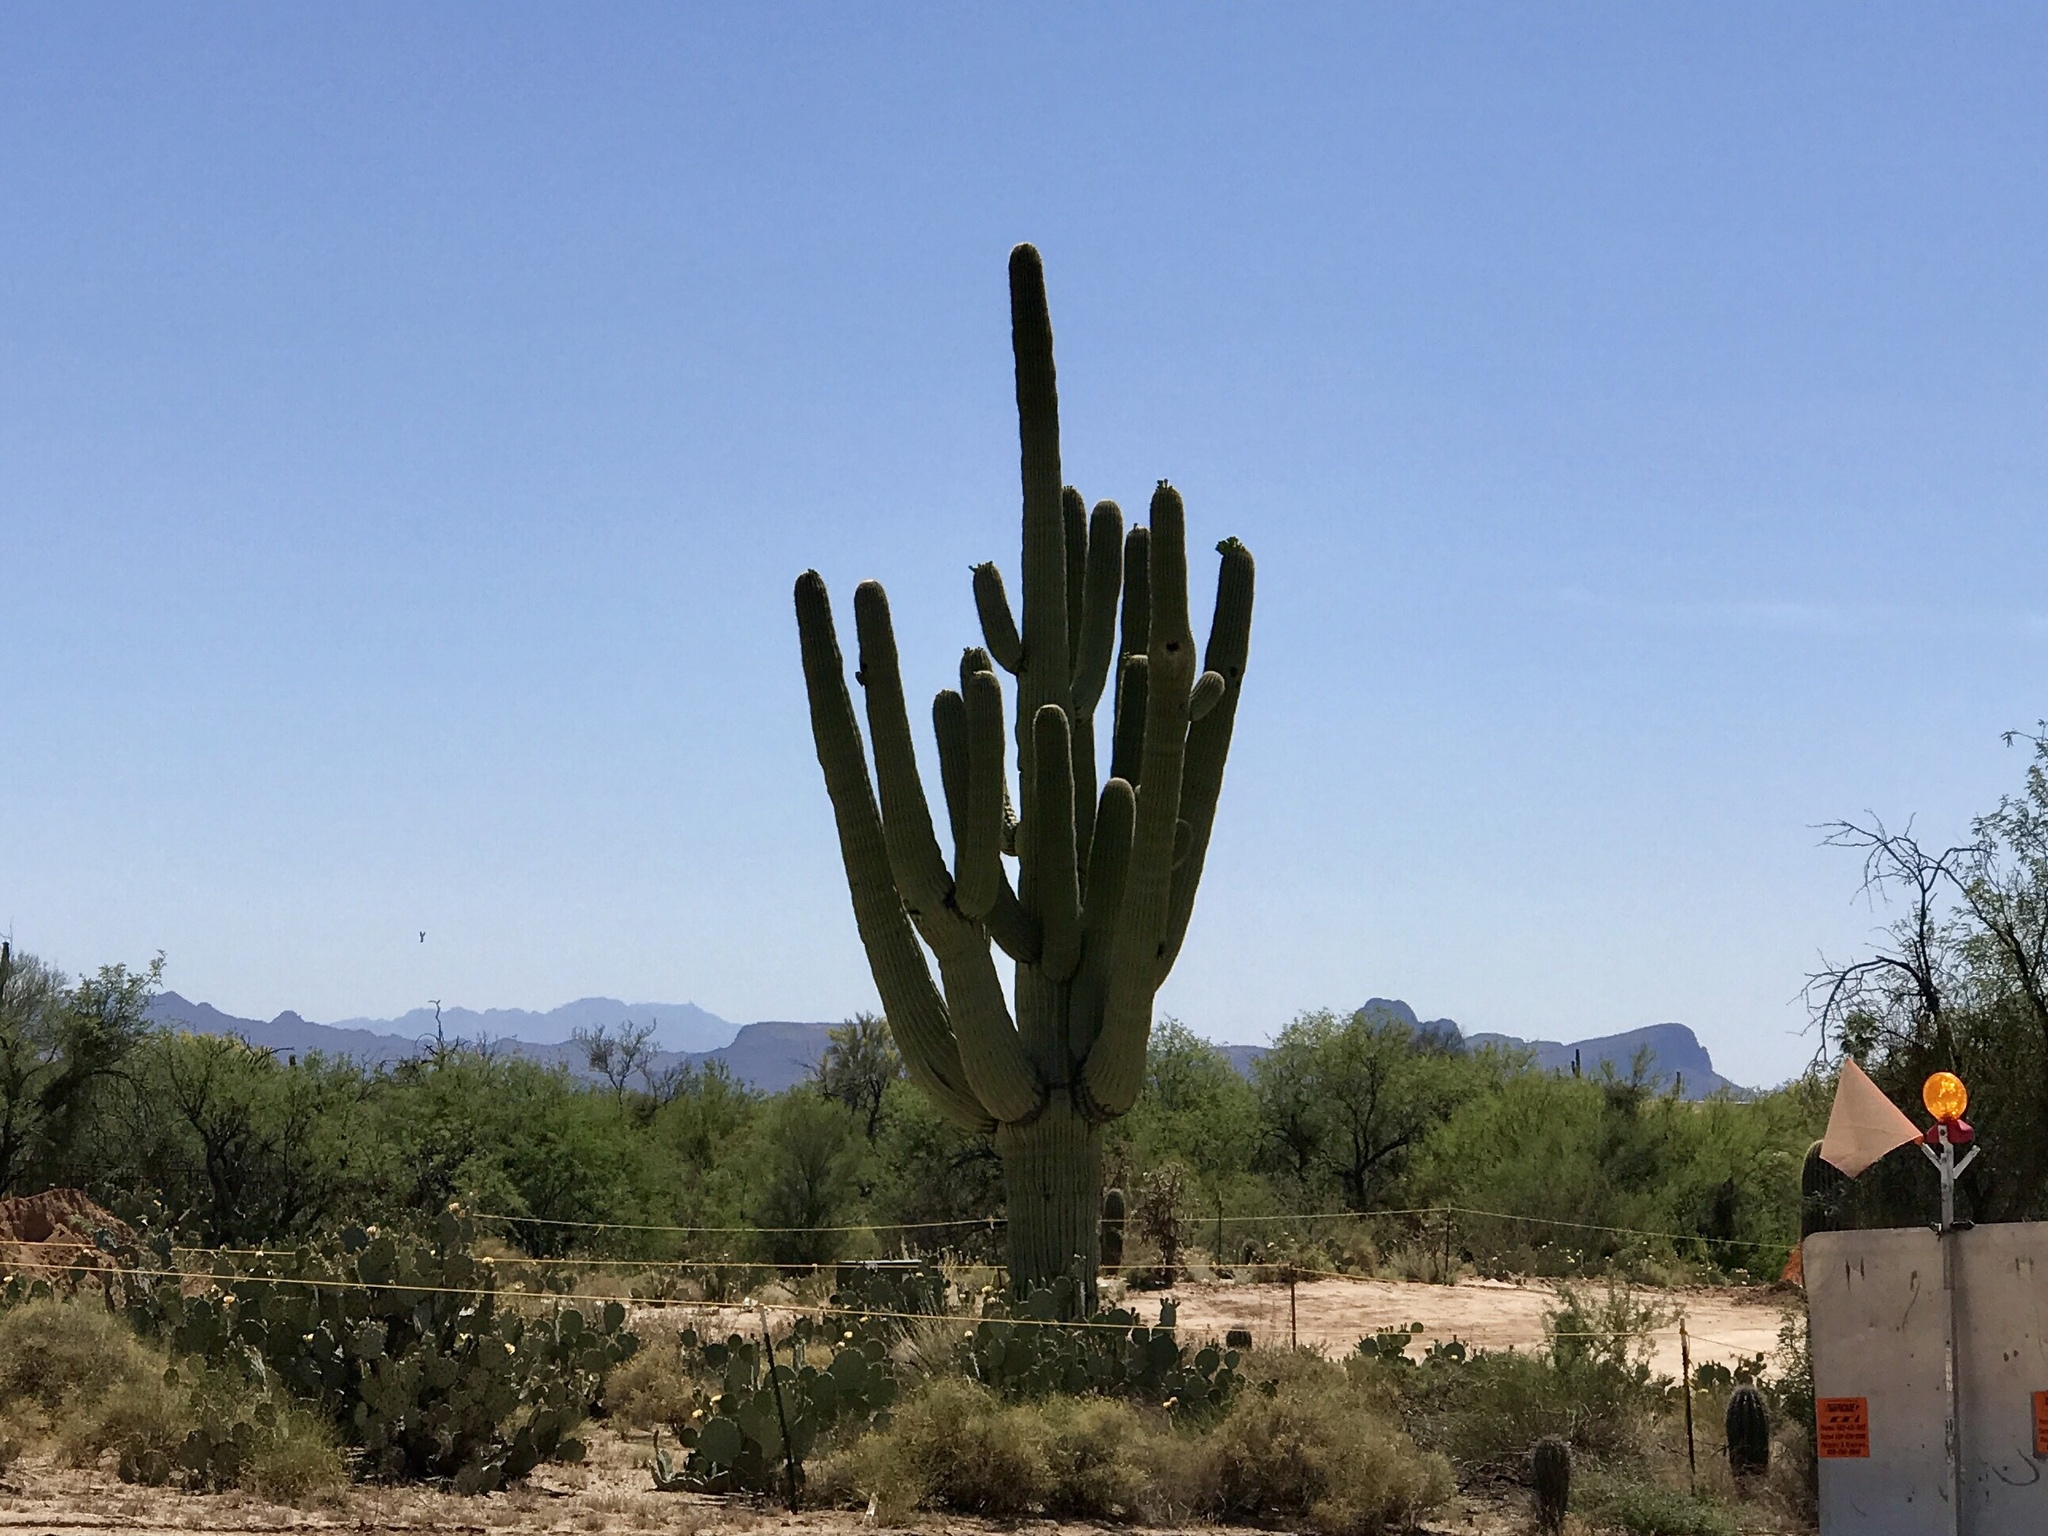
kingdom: Plantae
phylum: Tracheophyta
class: Magnoliopsida
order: Caryophyllales
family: Cactaceae
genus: Carnegiea
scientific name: Carnegiea gigantea
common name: Saguaro
